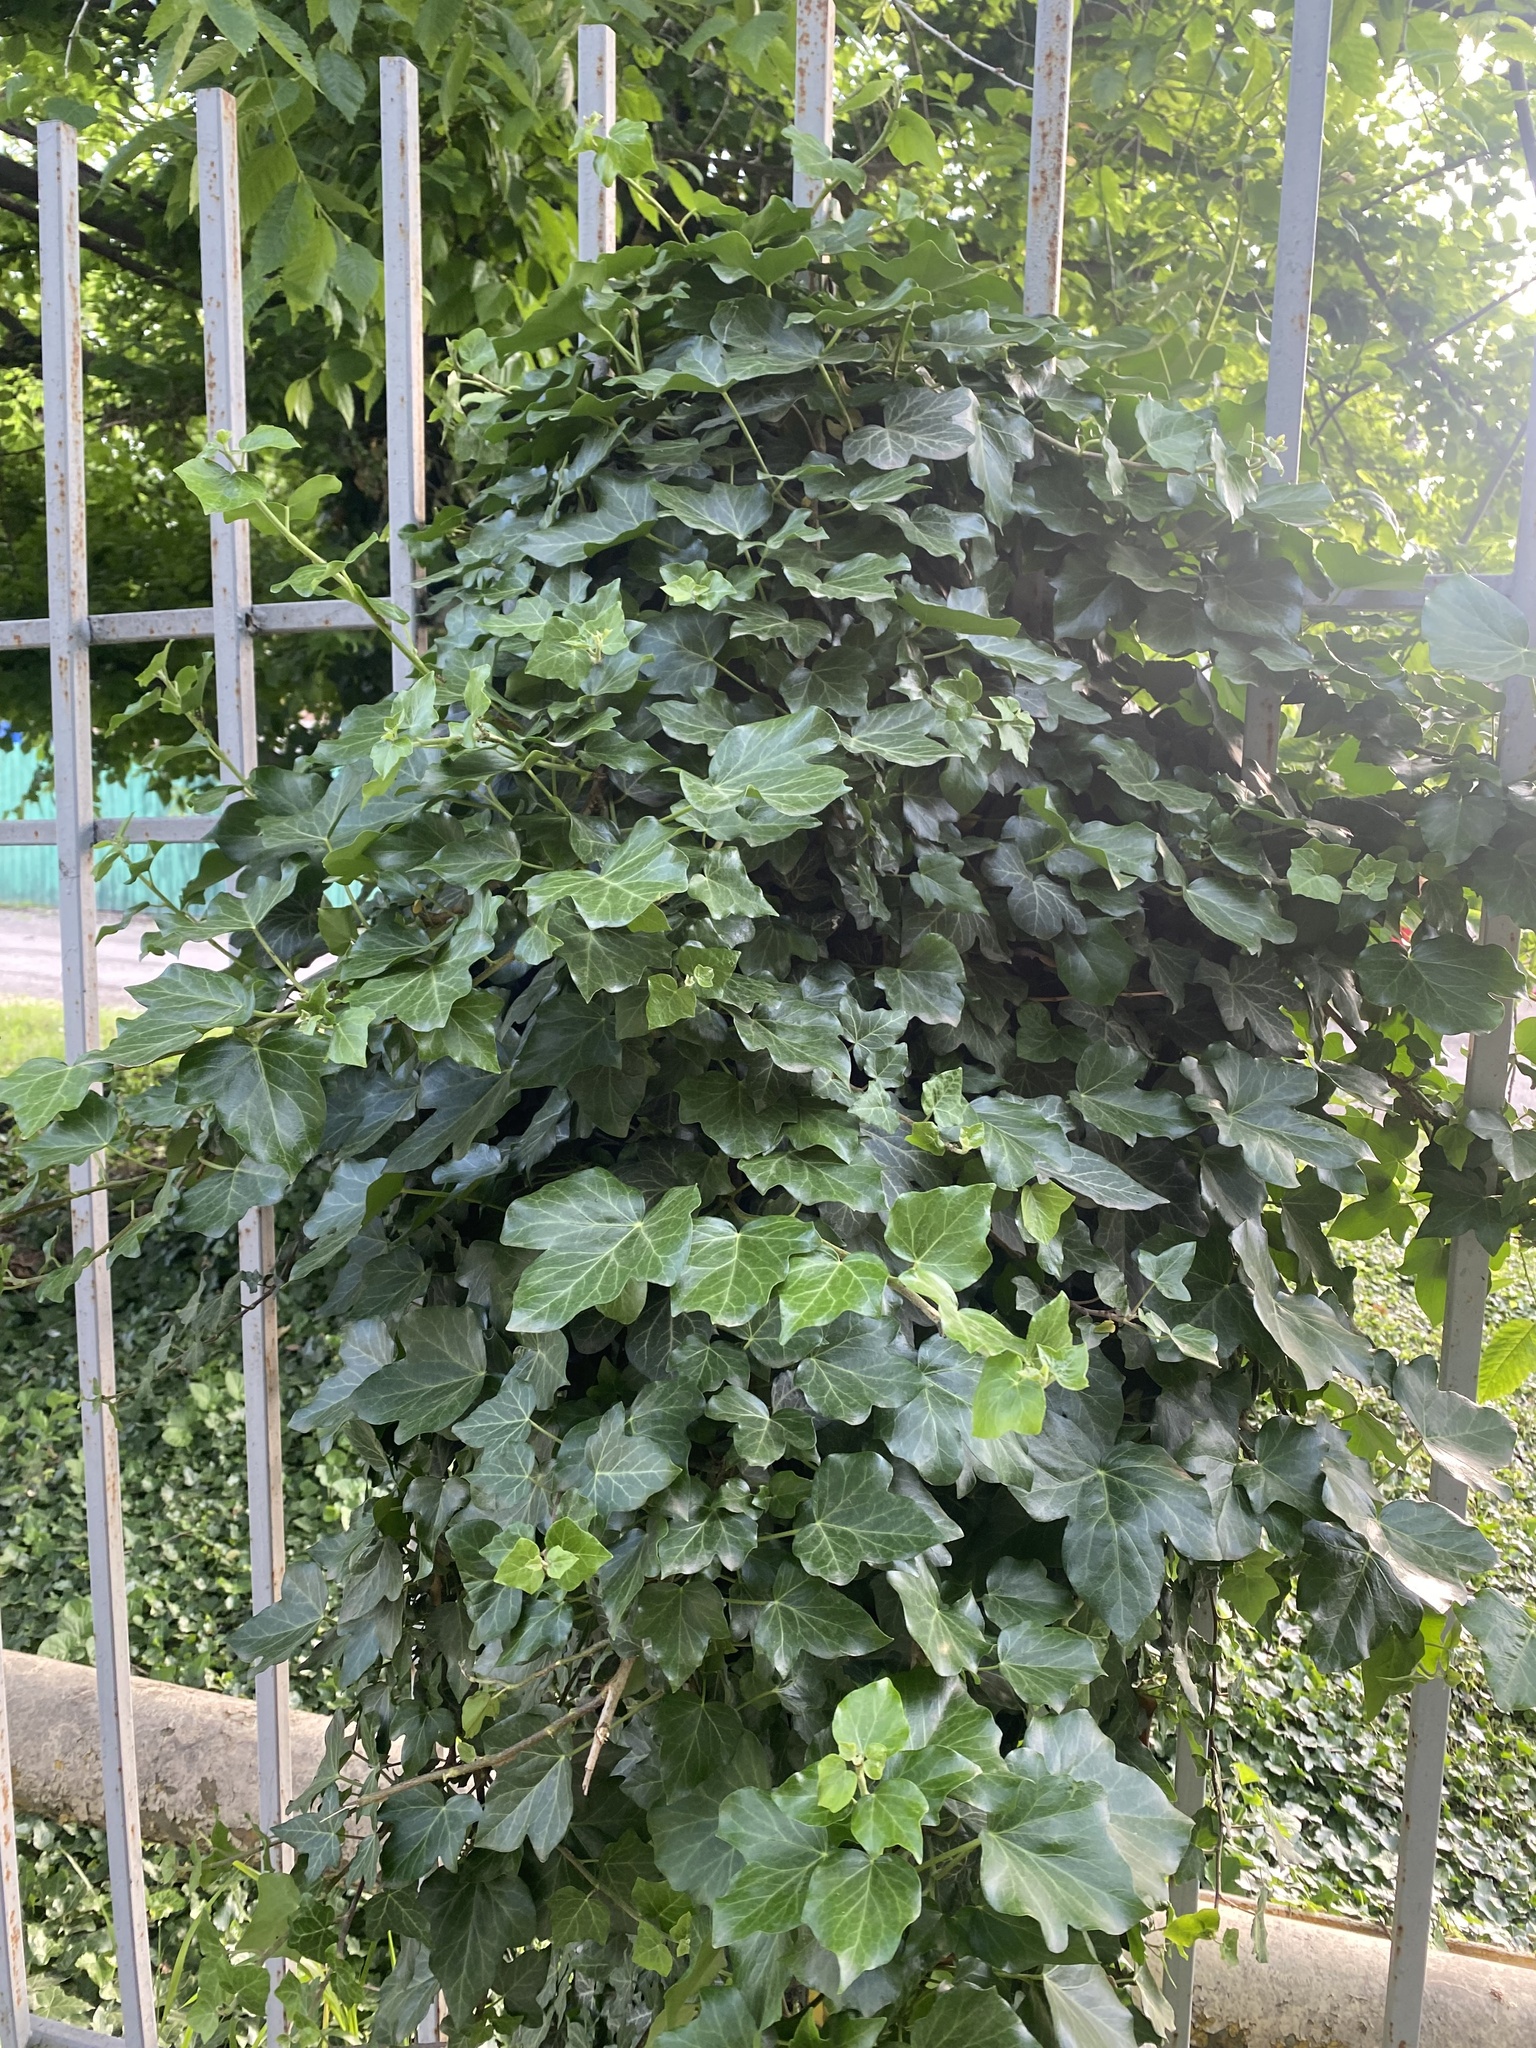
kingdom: Plantae
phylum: Tracheophyta
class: Magnoliopsida
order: Apiales
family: Araliaceae
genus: Hedera
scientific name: Hedera helix
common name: Ivy
